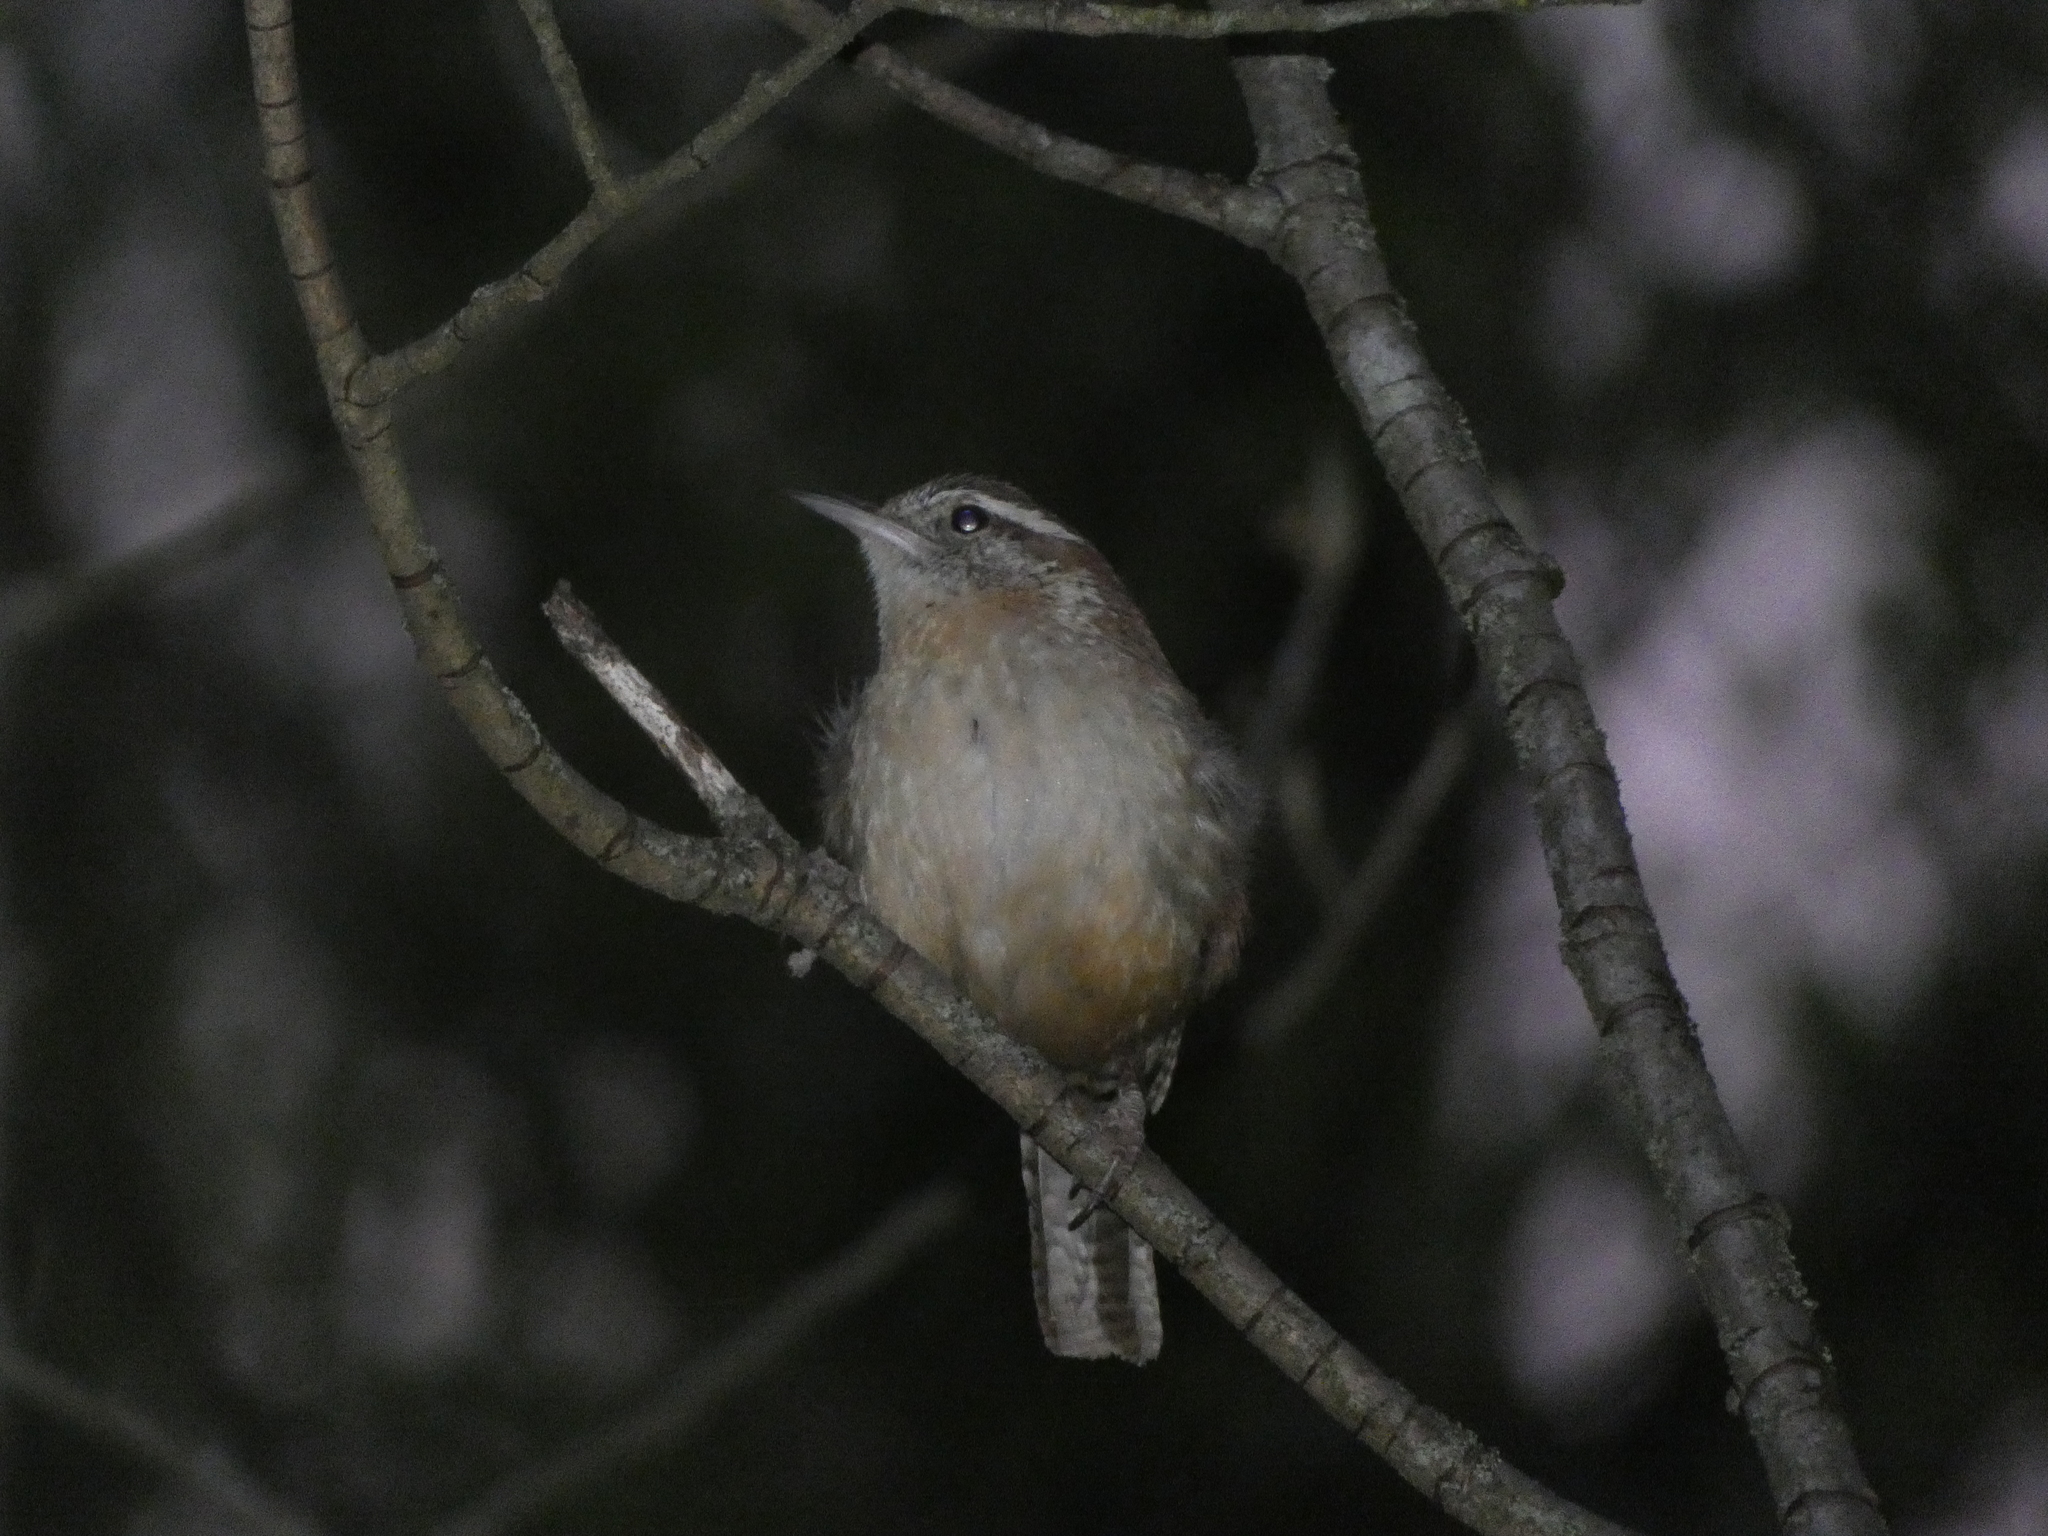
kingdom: Animalia
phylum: Chordata
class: Aves
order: Passeriformes
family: Troglodytidae
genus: Thryothorus
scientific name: Thryothorus ludovicianus
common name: Carolina wren
